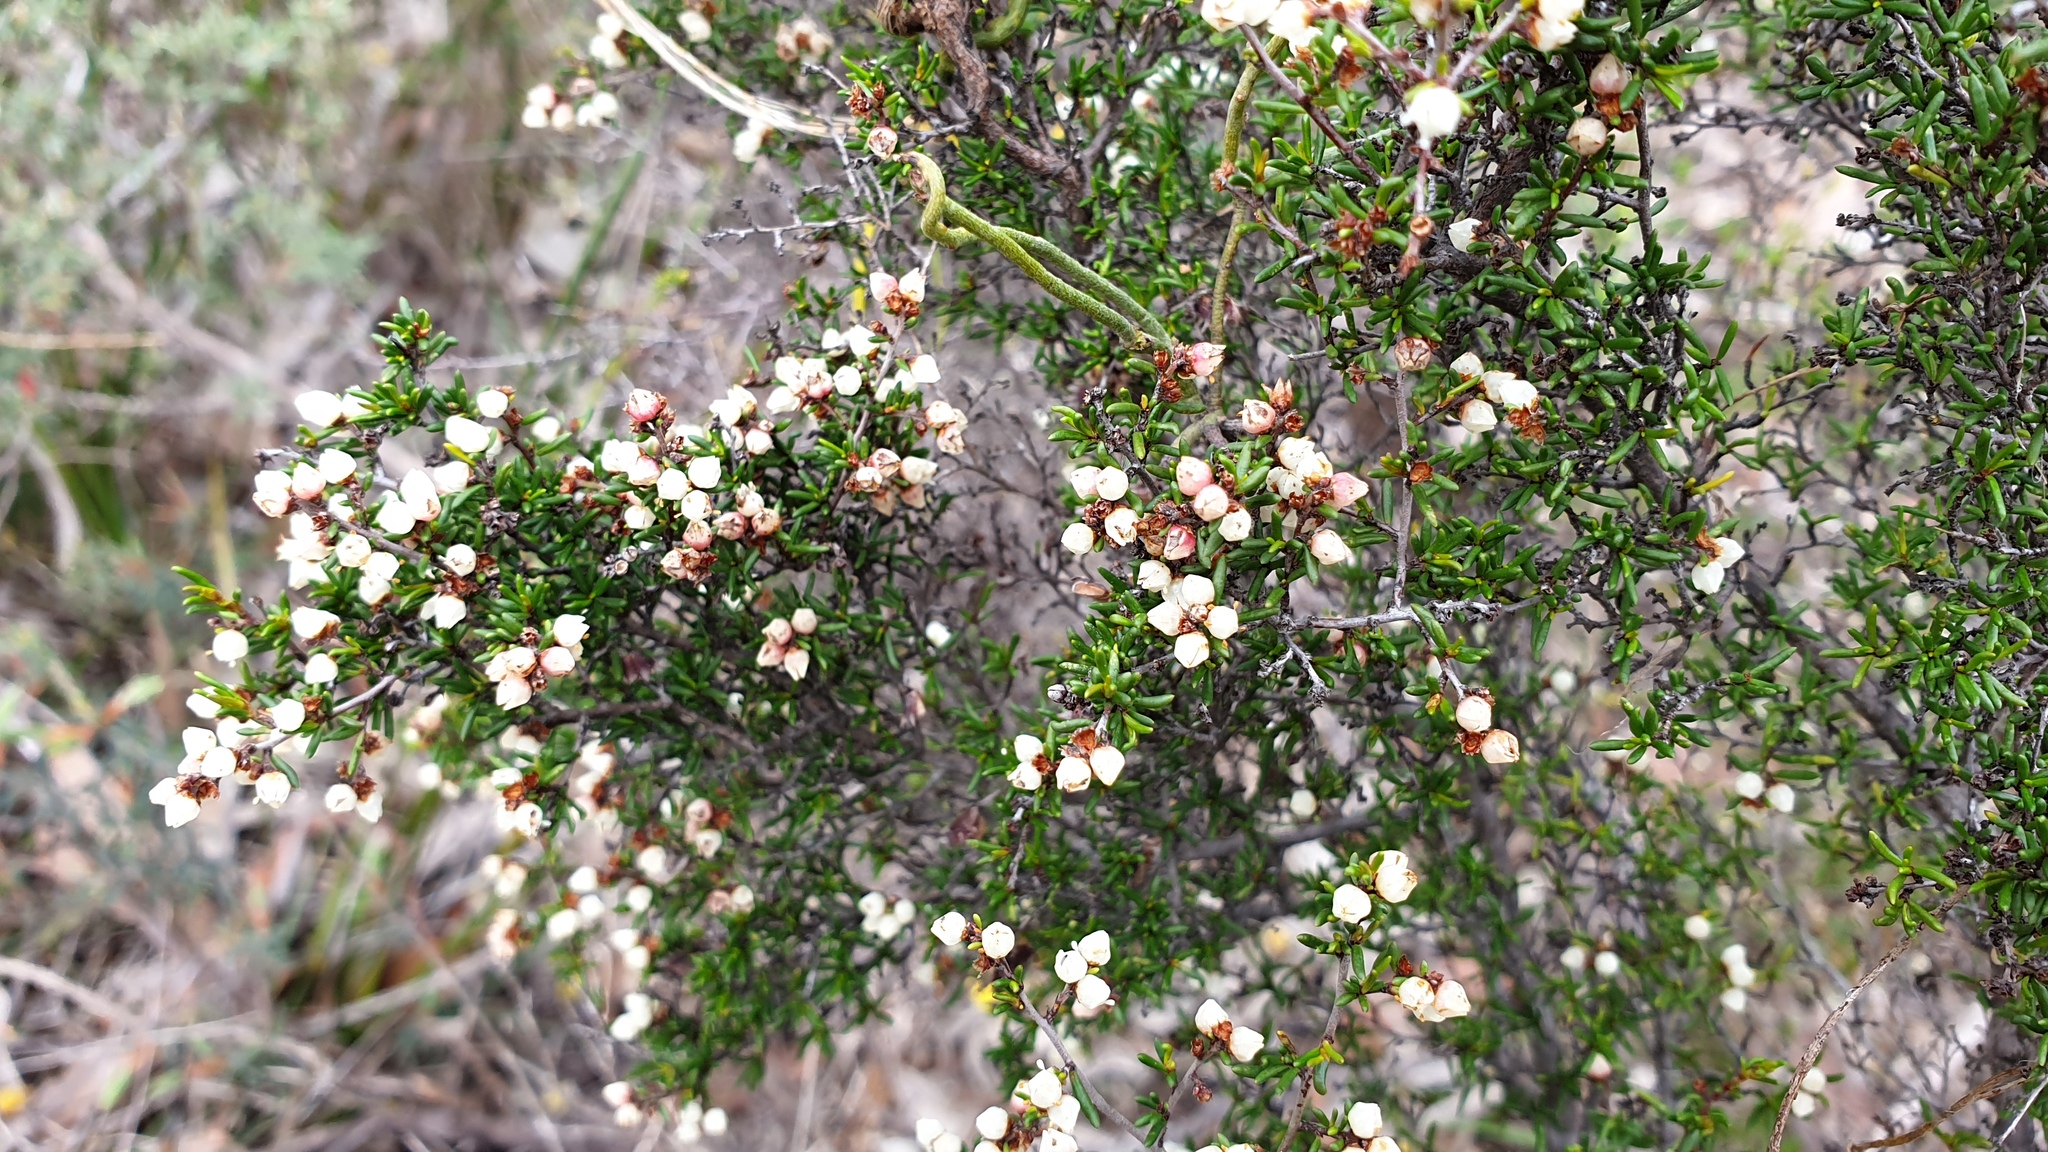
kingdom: Plantae
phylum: Tracheophyta
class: Magnoliopsida
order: Rosales
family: Rhamnaceae
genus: Cryptandra
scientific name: Cryptandra tomentosa
